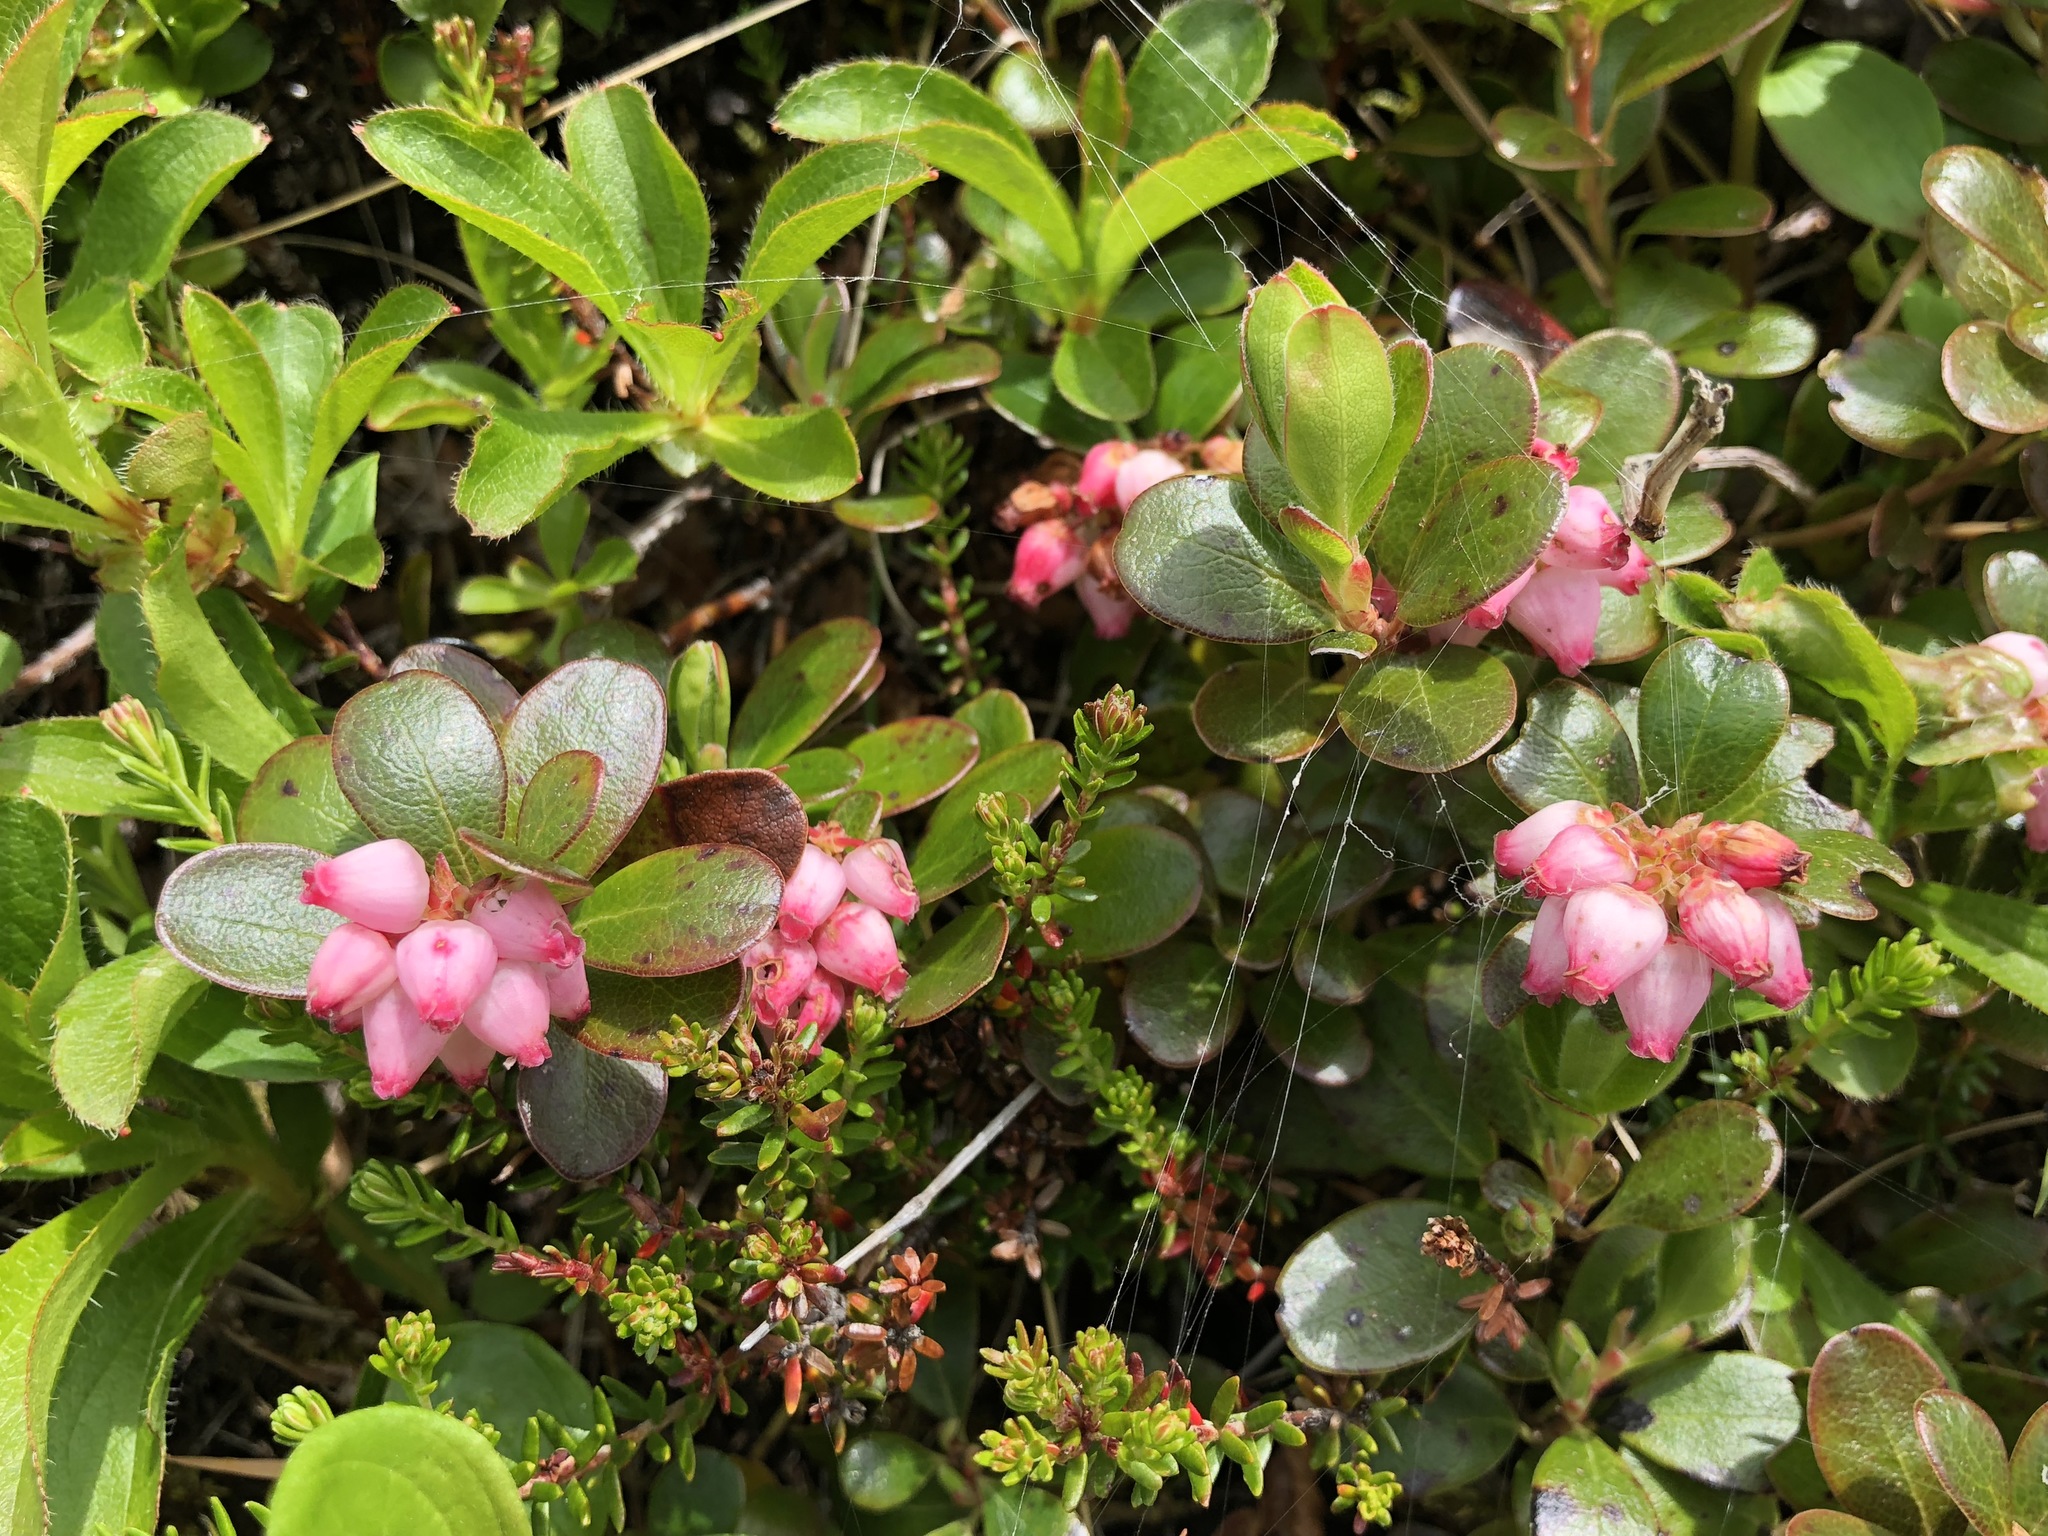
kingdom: Plantae
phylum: Tracheophyta
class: Magnoliopsida
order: Ericales
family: Ericaceae
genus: Arctostaphylos
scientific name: Arctostaphylos uva-ursi
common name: Bearberry
